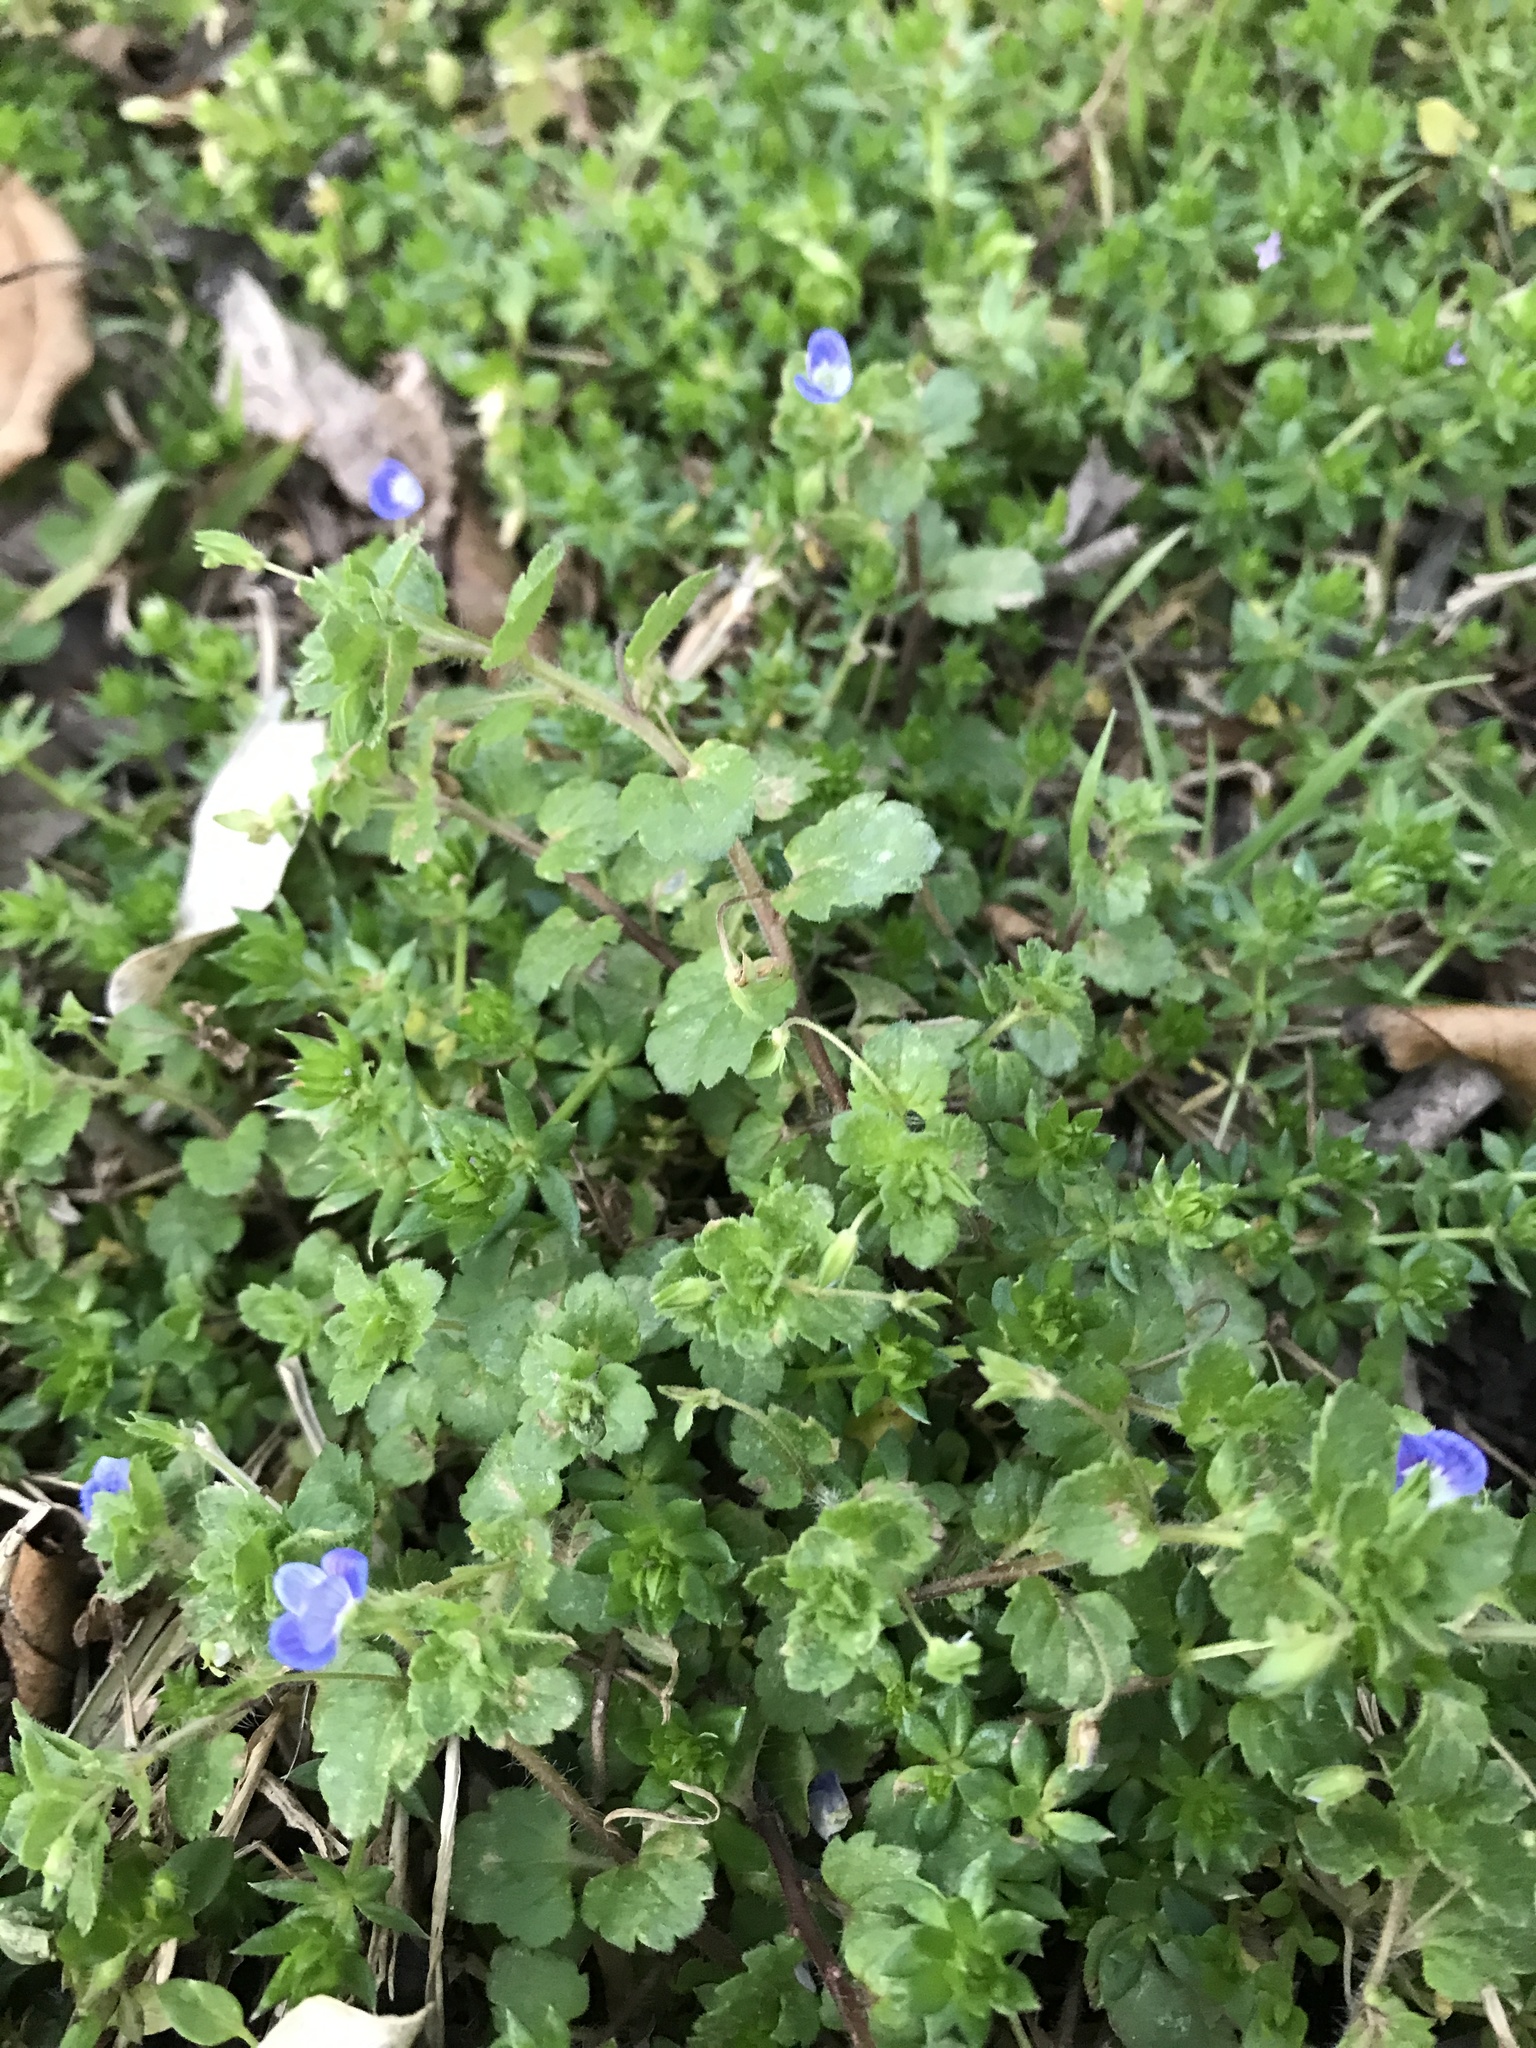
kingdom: Plantae
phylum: Tracheophyta
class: Magnoliopsida
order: Lamiales
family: Plantaginaceae
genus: Veronica
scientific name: Veronica persica
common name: Common field-speedwell
